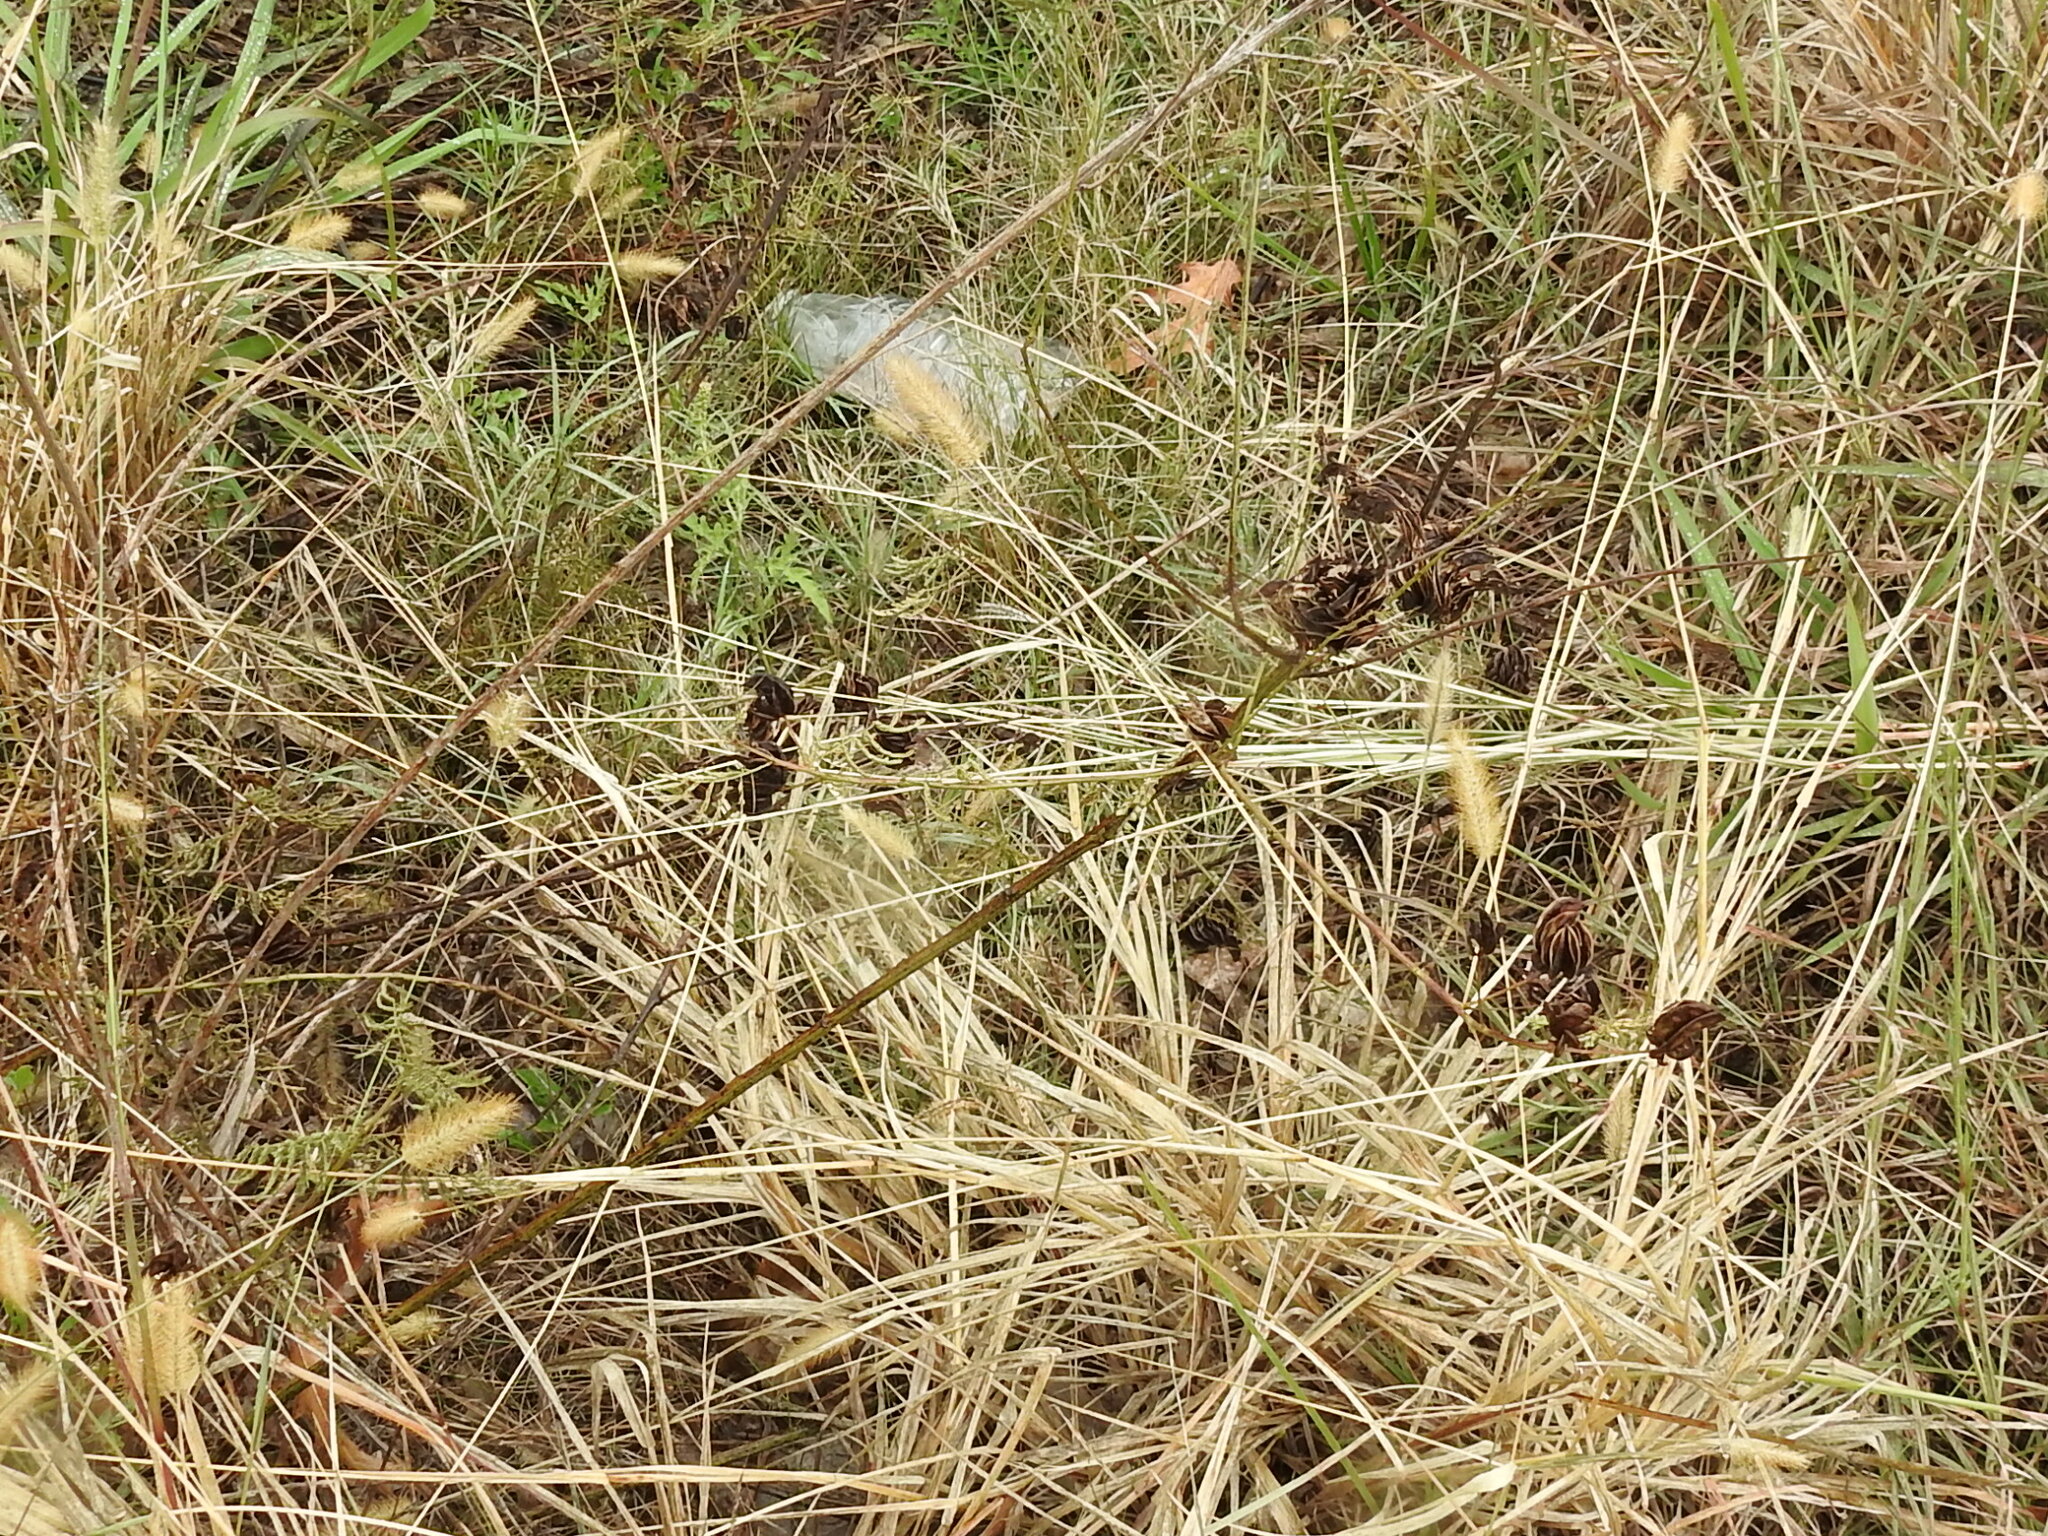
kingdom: Plantae
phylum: Tracheophyta
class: Magnoliopsida
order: Fabales
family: Fabaceae
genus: Desmanthus
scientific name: Desmanthus illinoensis
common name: Illinois bundle-flower
